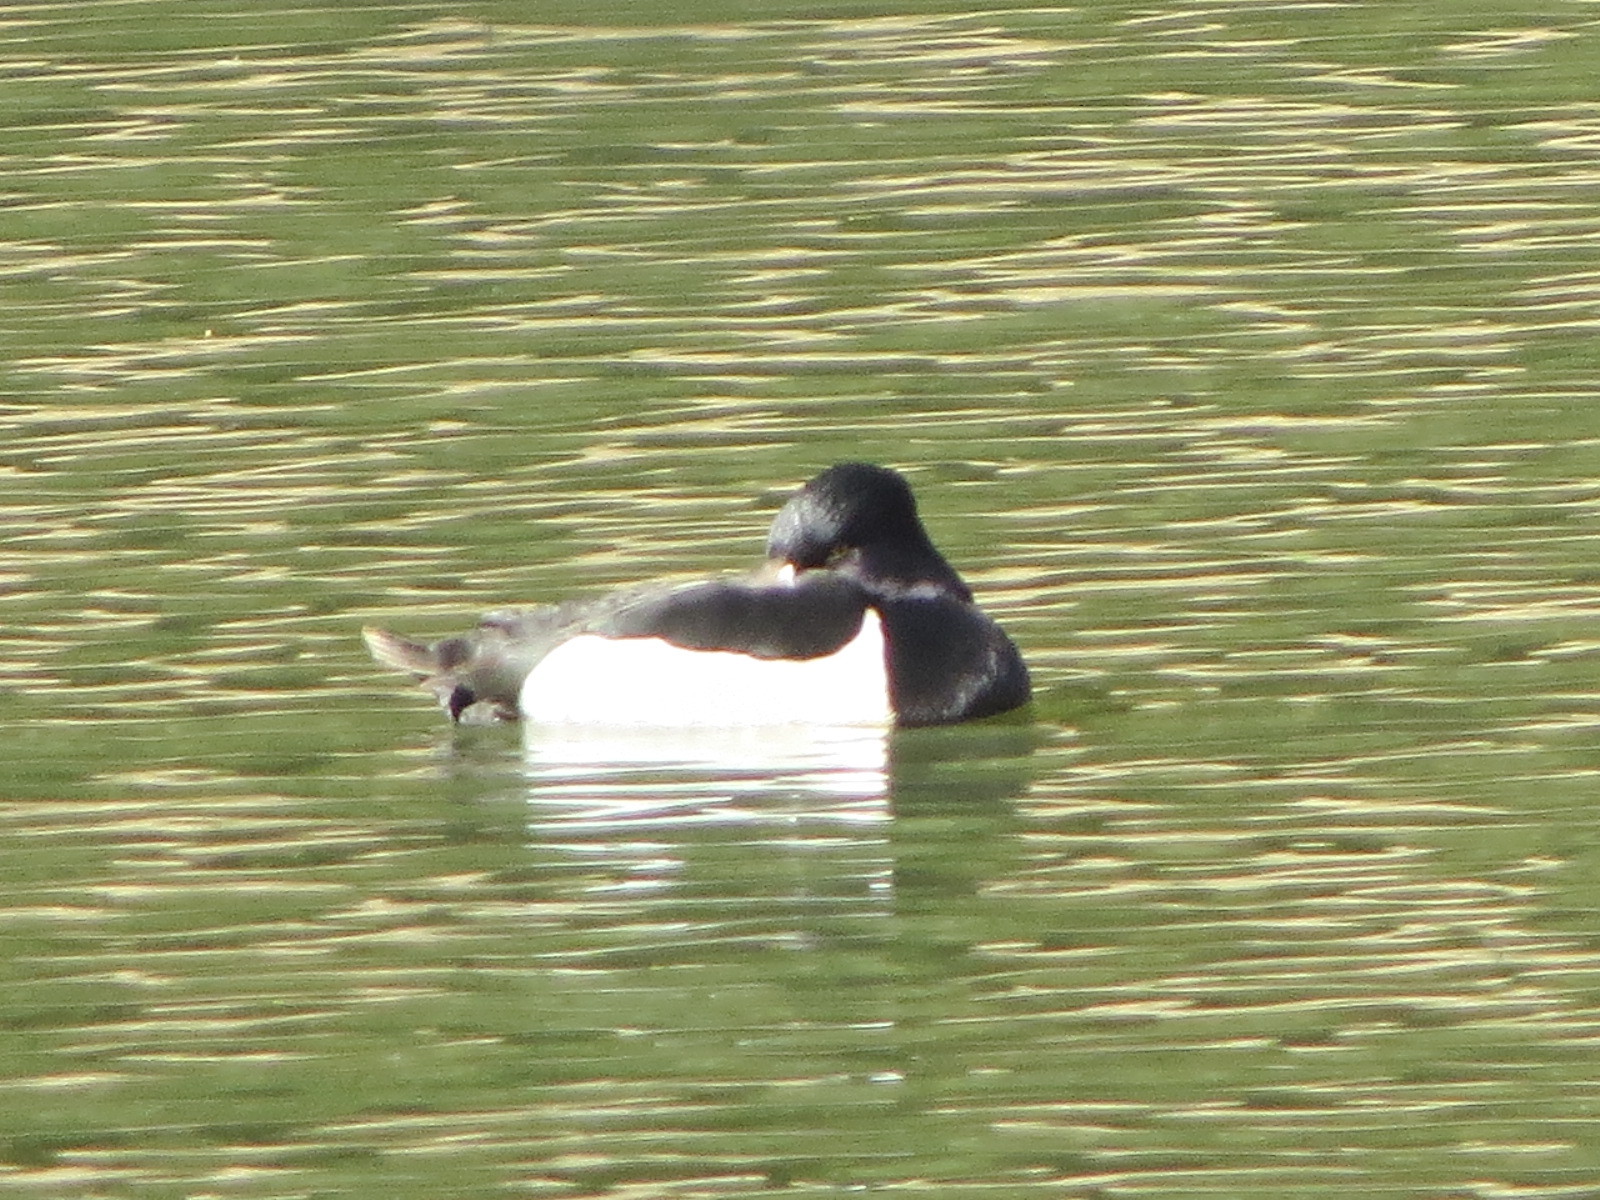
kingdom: Animalia
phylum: Chordata
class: Aves
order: Anseriformes
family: Anatidae
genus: Aythya
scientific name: Aythya collaris
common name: Ring-necked duck
